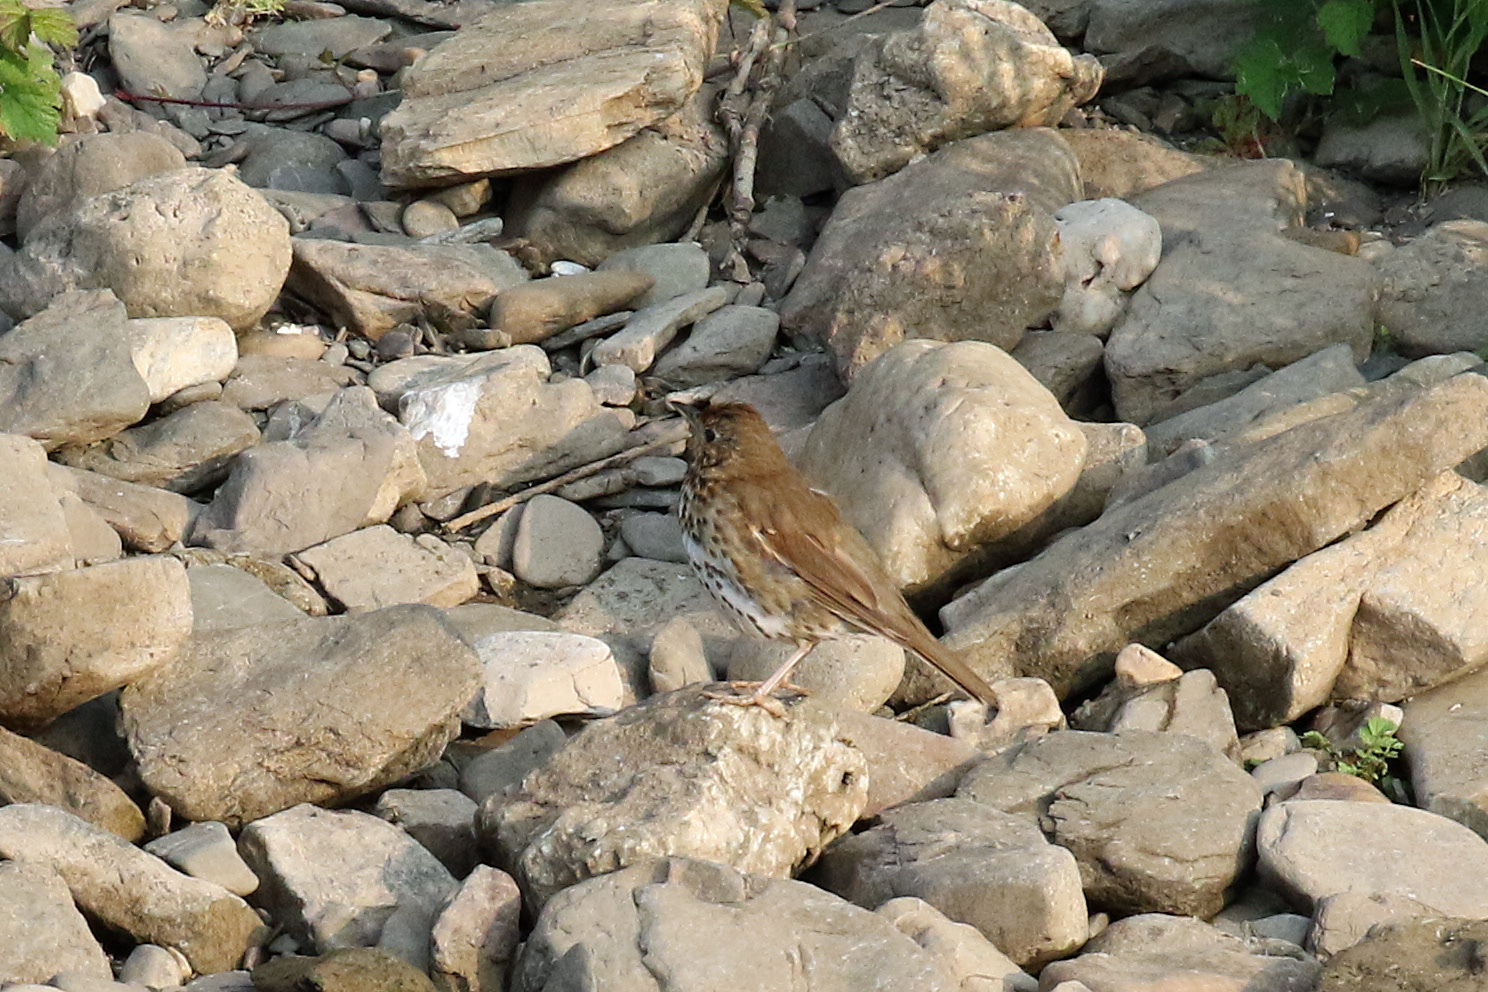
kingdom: Animalia
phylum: Chordata
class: Aves
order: Passeriformes
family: Turdidae
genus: Turdus
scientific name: Turdus philomelos
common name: Song thrush
